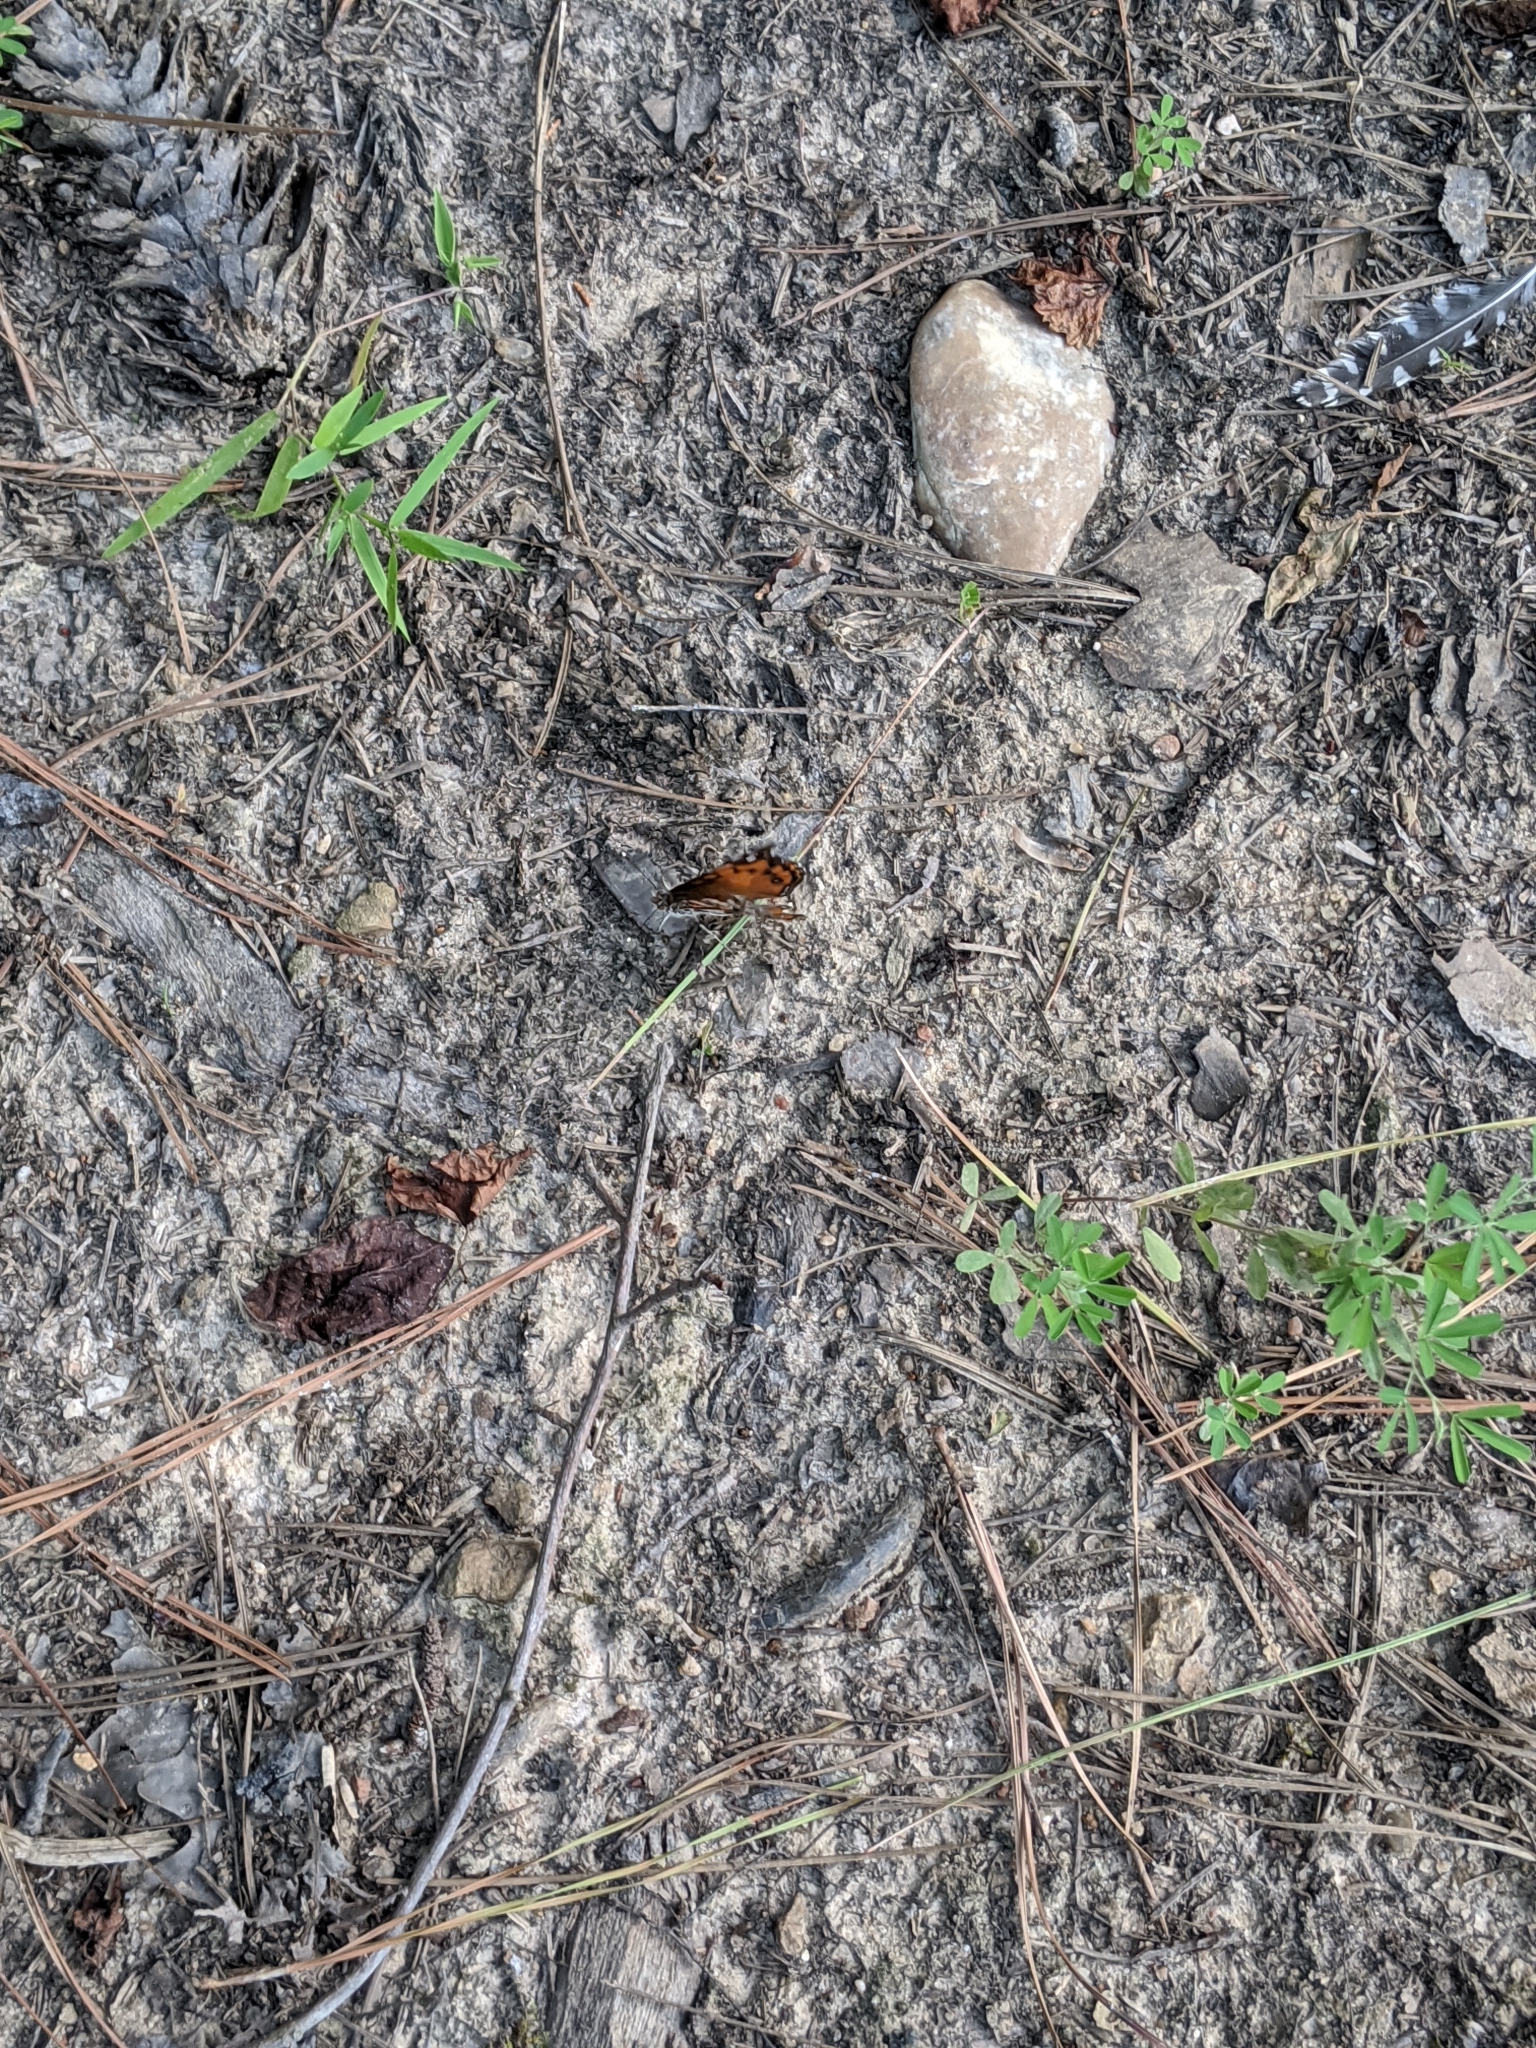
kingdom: Animalia
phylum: Arthropoda
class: Insecta
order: Lepidoptera
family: Nymphalidae
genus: Vanessa
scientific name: Vanessa virginiensis
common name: American lady
